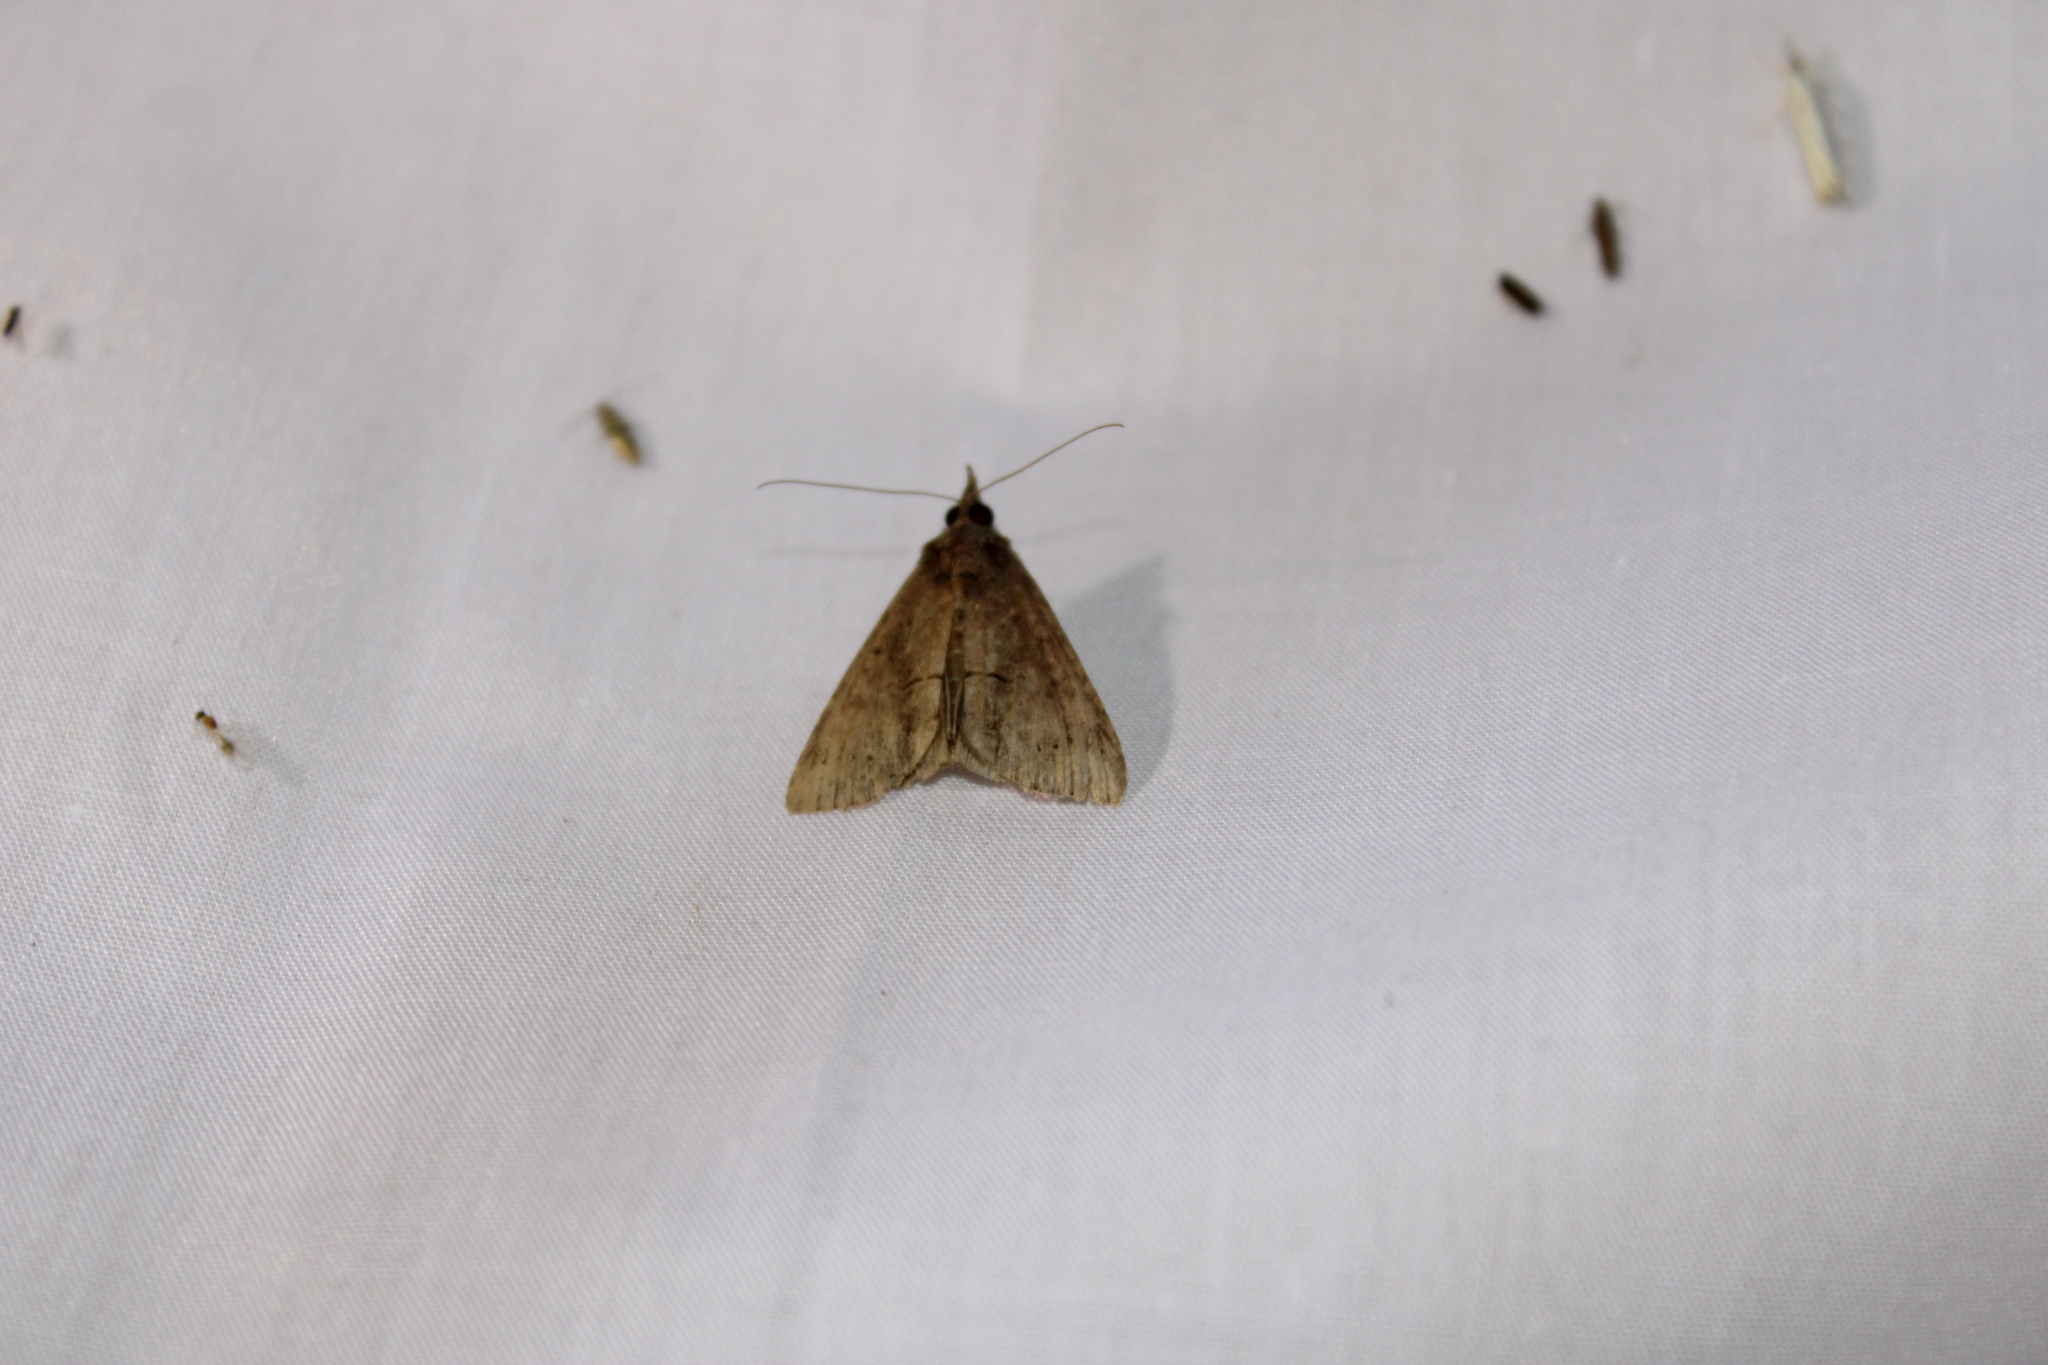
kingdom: Animalia
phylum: Arthropoda
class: Insecta
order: Lepidoptera
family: Erebidae
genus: Hypena
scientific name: Hypena scabra
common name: Green cloverworm
